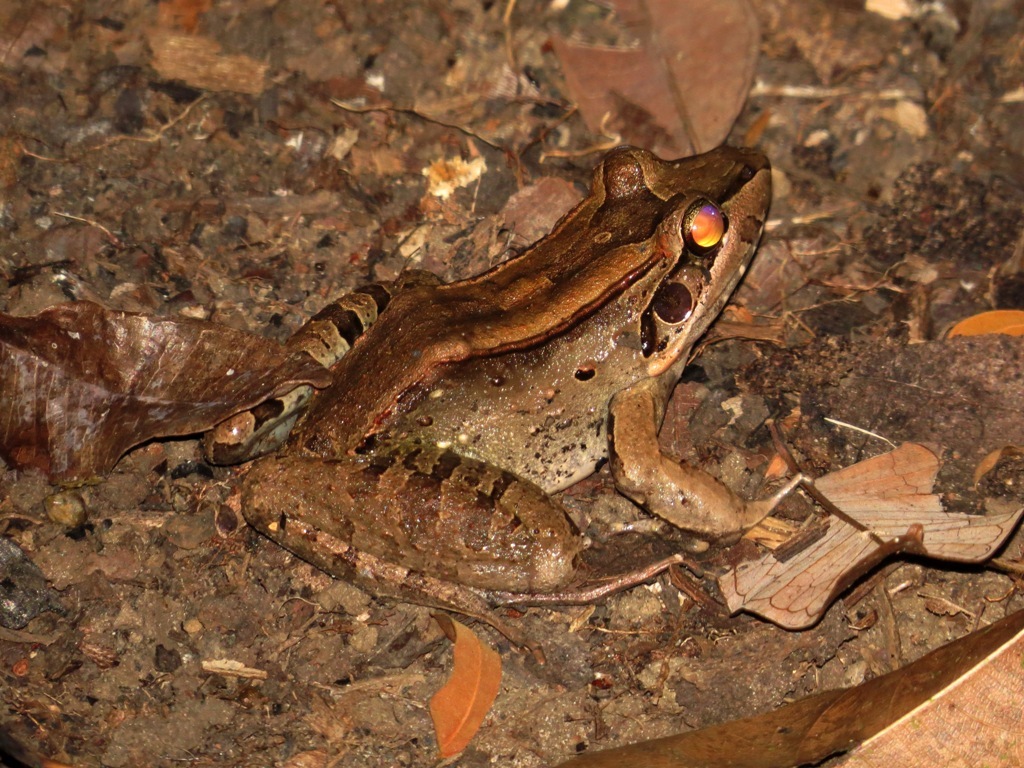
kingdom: Animalia
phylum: Chordata
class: Amphibia
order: Anura
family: Leptodactylidae
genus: Leptodactylus
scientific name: Leptodactylus guianensis
